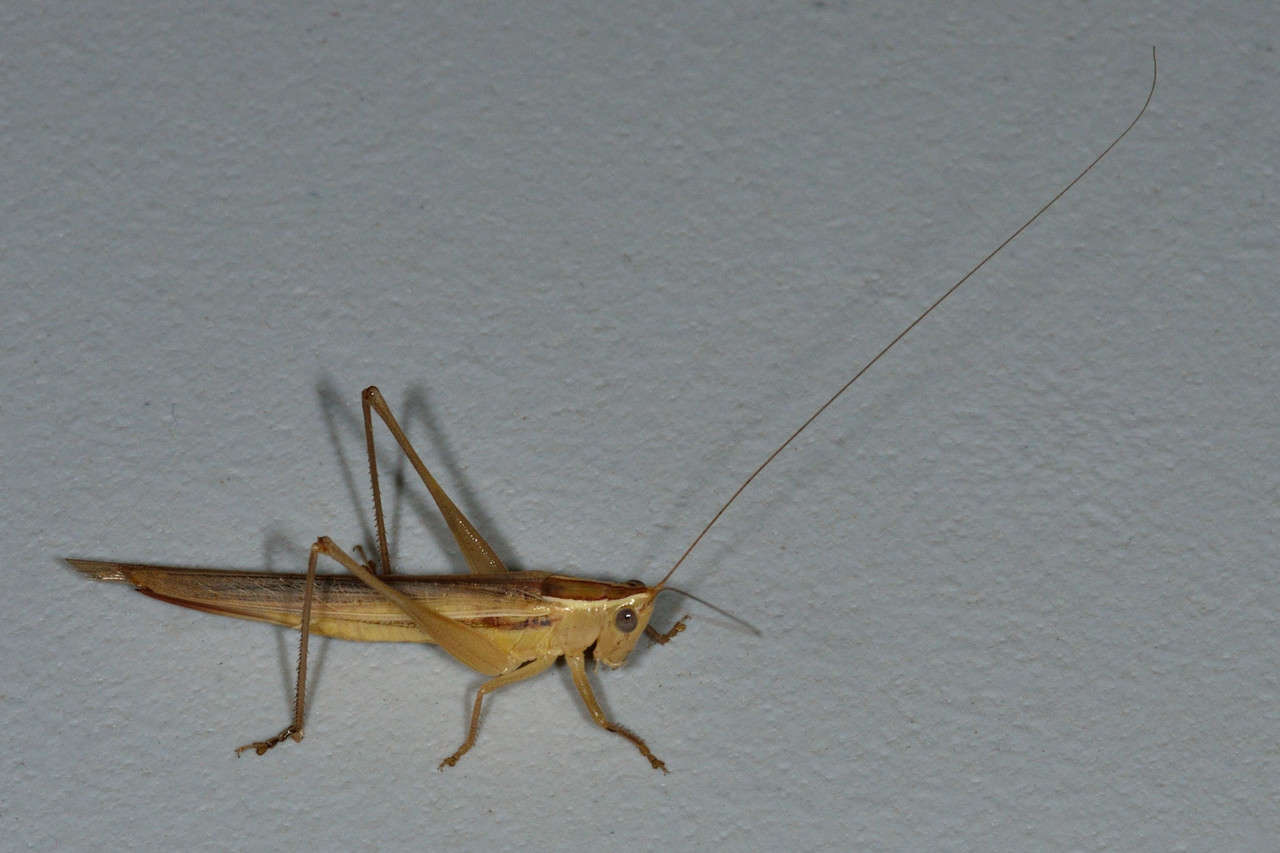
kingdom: Animalia
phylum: Arthropoda
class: Insecta
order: Orthoptera
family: Tettigoniidae
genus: Conocephalus
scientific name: Conocephalus upoluensis
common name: Upolu meadow katydid
